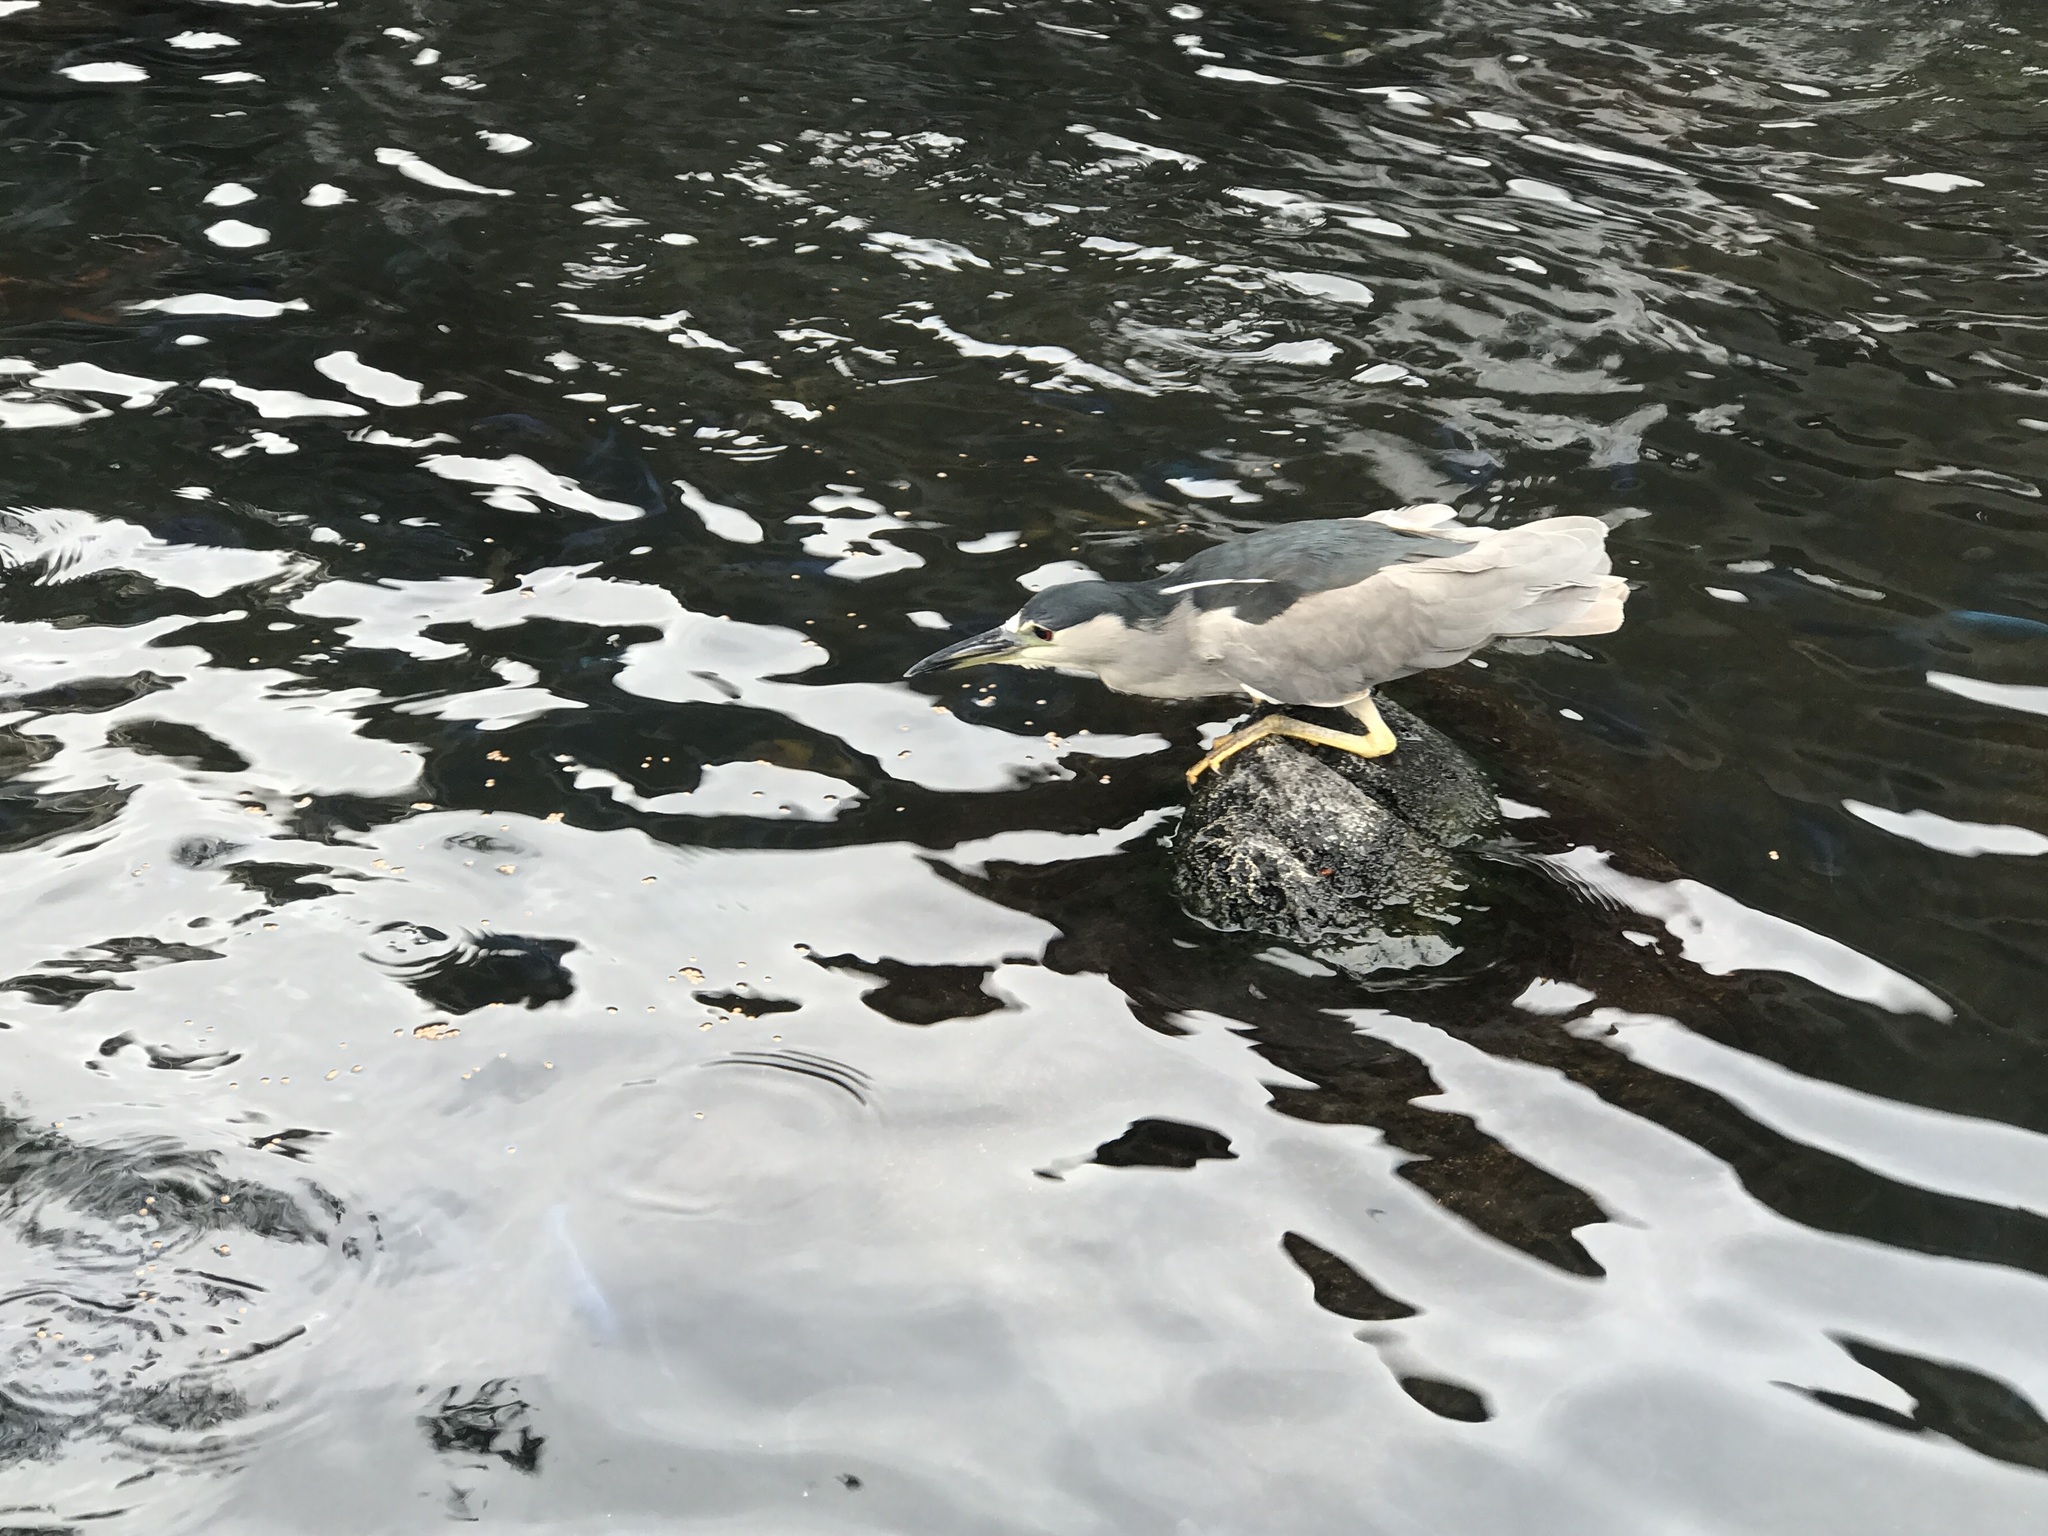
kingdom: Animalia
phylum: Chordata
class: Aves
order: Pelecaniformes
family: Ardeidae
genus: Nycticorax
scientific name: Nycticorax nycticorax
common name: Black-crowned night heron
